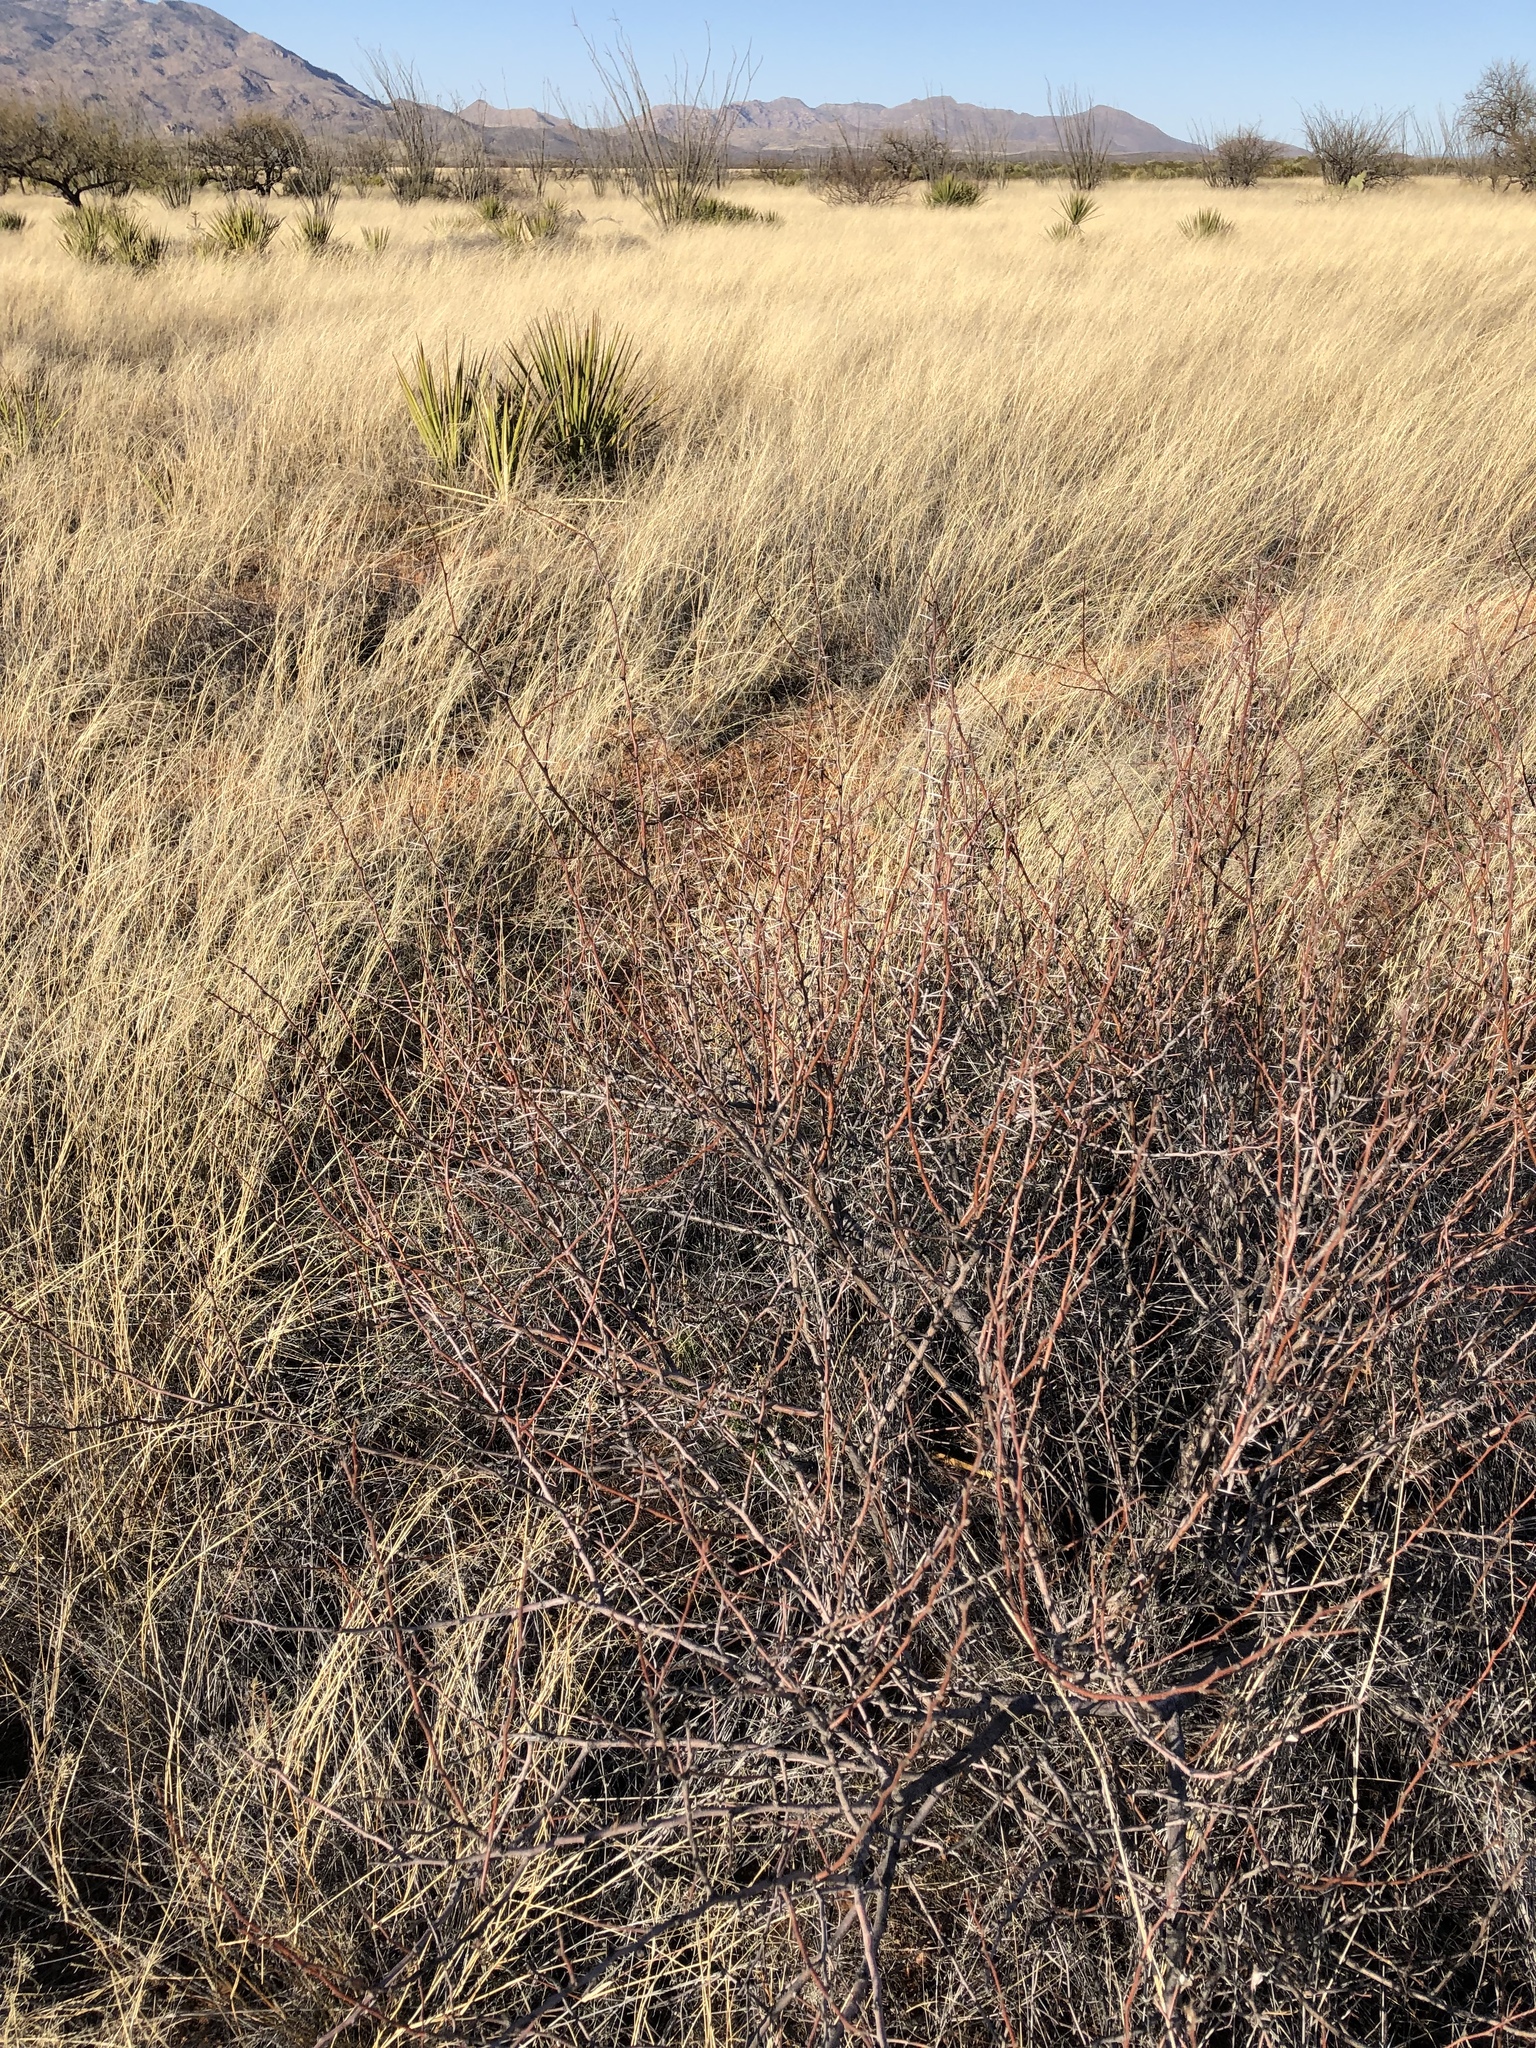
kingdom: Plantae
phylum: Tracheophyta
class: Magnoliopsida
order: Fabales
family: Fabaceae
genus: Vachellia
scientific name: Vachellia constricta
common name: Mescat acacia
